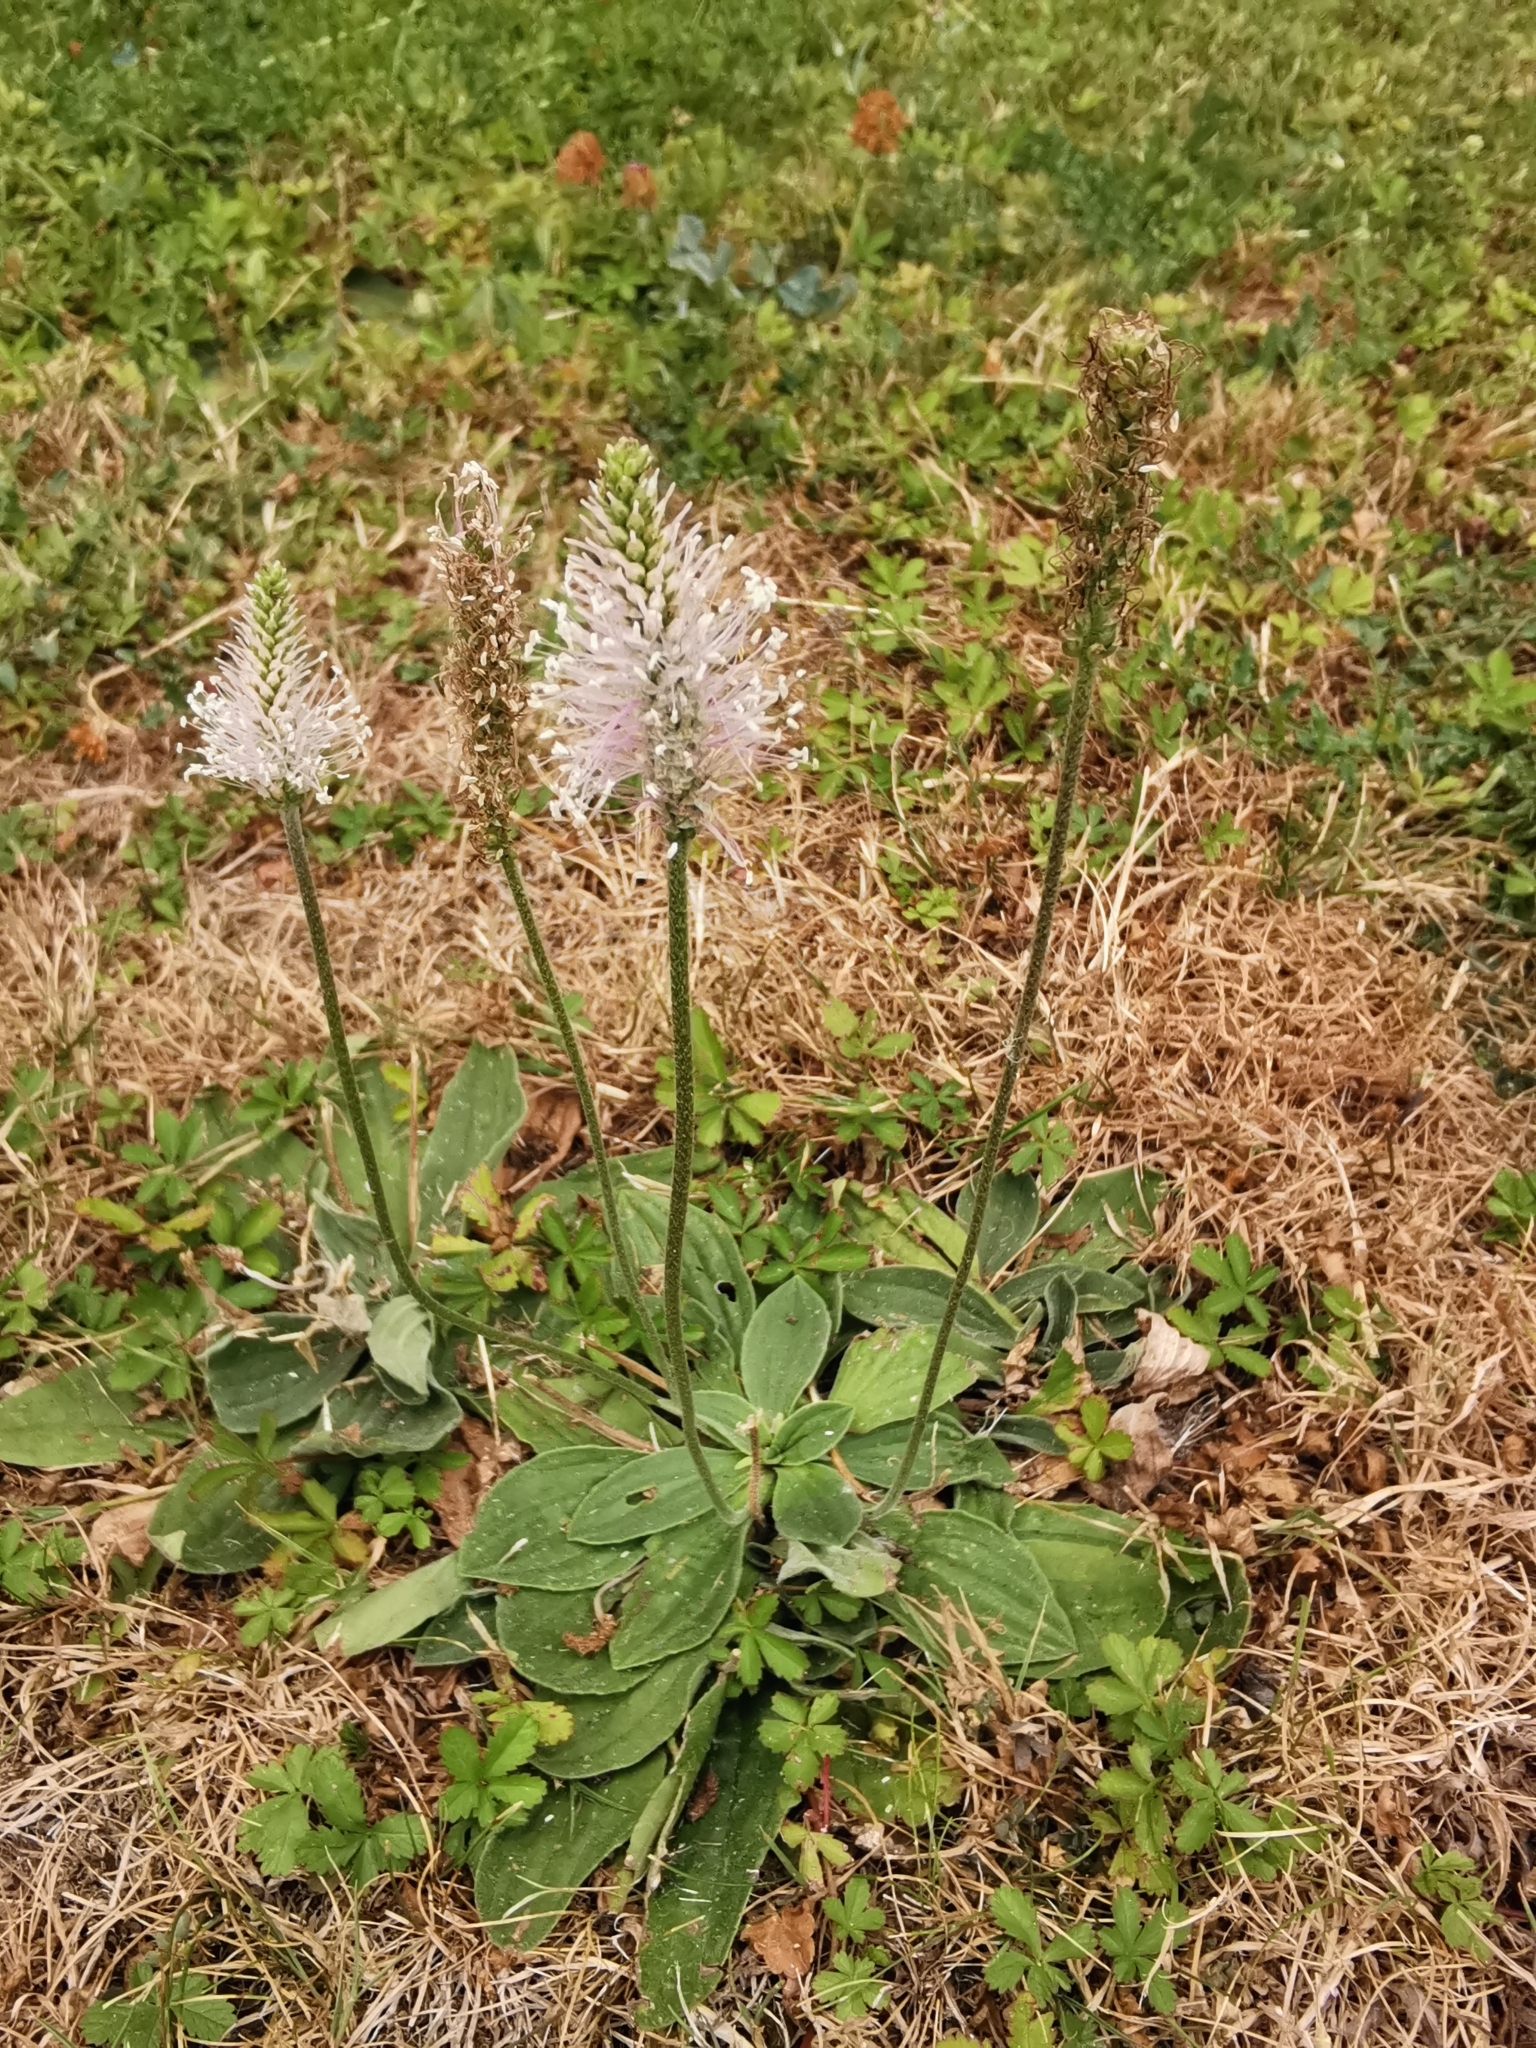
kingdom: Plantae
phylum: Tracheophyta
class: Magnoliopsida
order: Lamiales
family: Plantaginaceae
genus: Plantago
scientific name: Plantago media
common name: Hoary plantain
